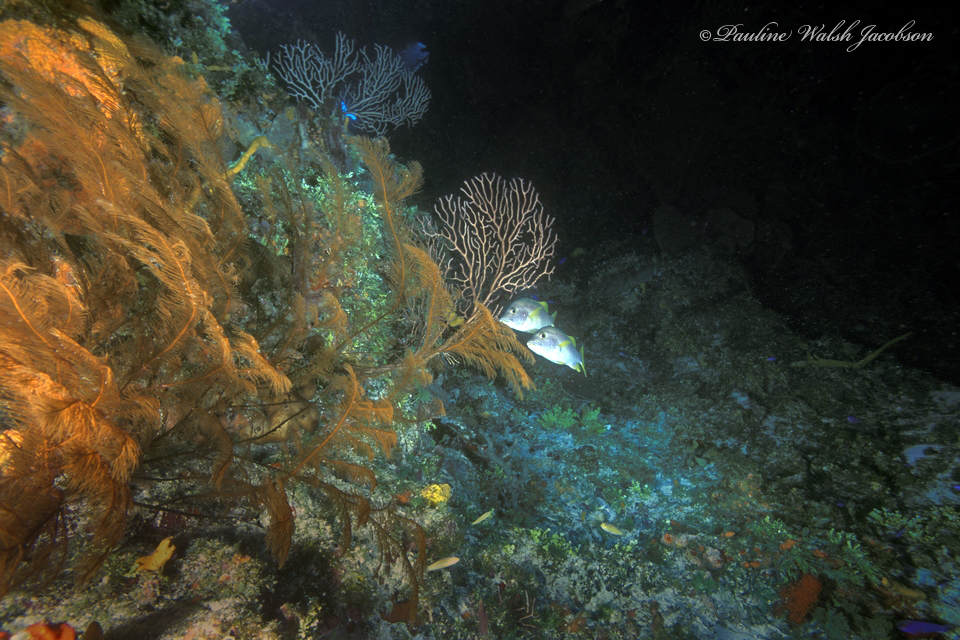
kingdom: Animalia
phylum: Chordata
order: Perciformes
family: Lutjanidae
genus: Lutjanus
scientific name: Lutjanus apodus
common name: Schoolmaster
